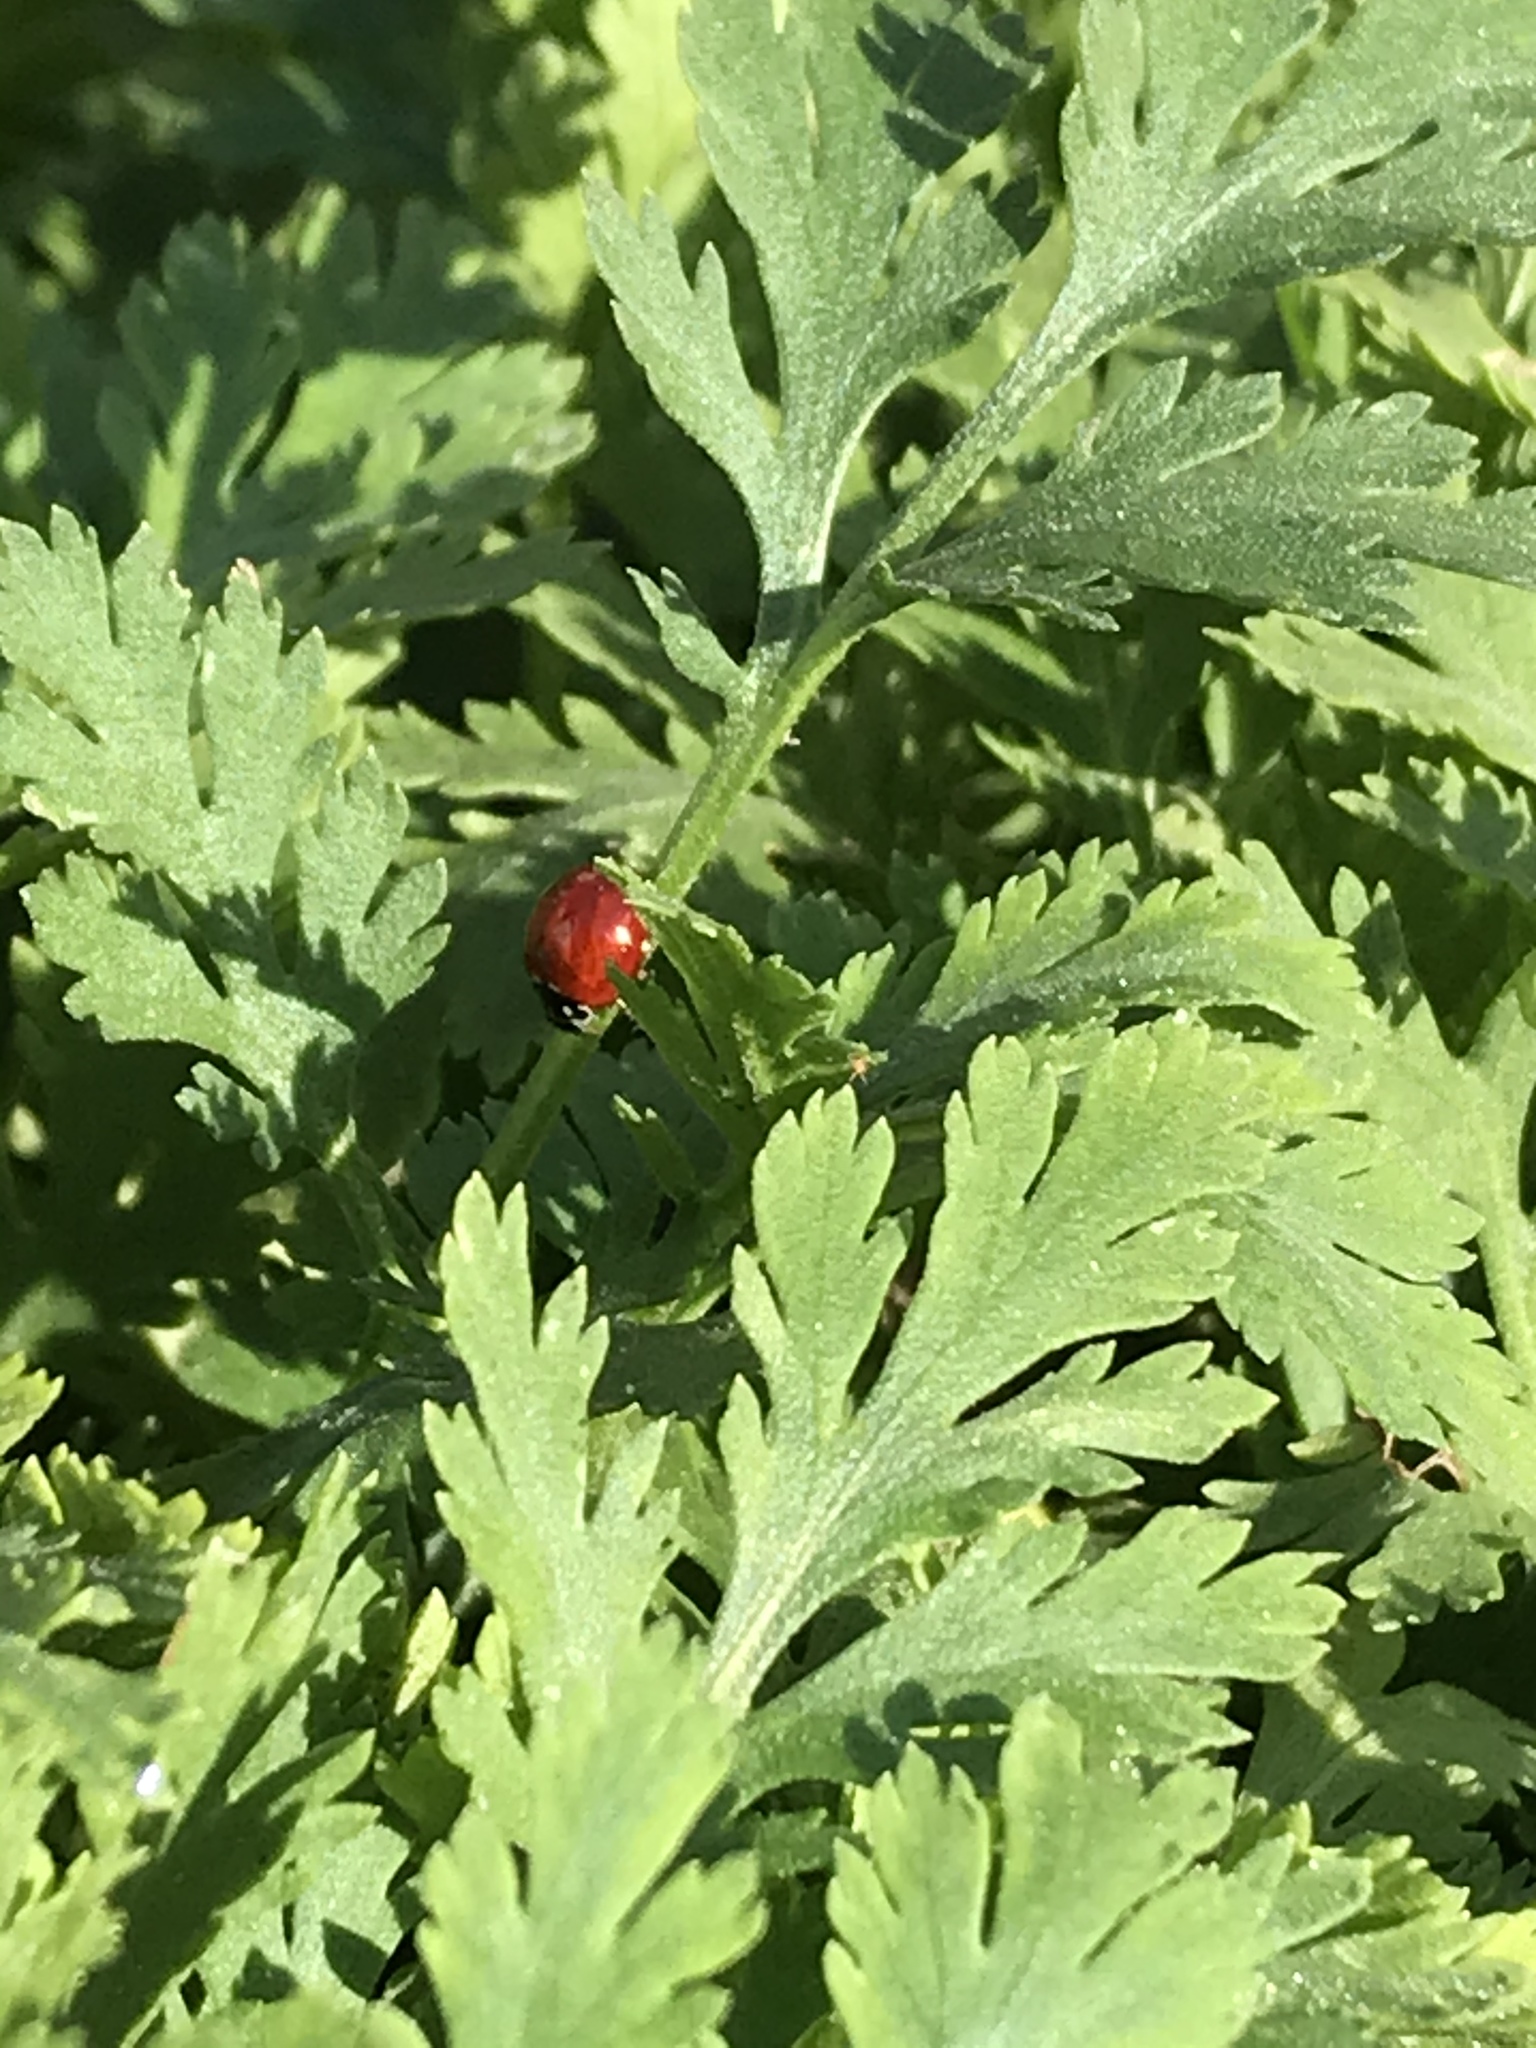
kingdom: Animalia
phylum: Arthropoda
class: Insecta
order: Coleoptera
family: Coccinellidae
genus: Cycloneda
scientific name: Cycloneda sanguinea
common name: Ladybird beetle
